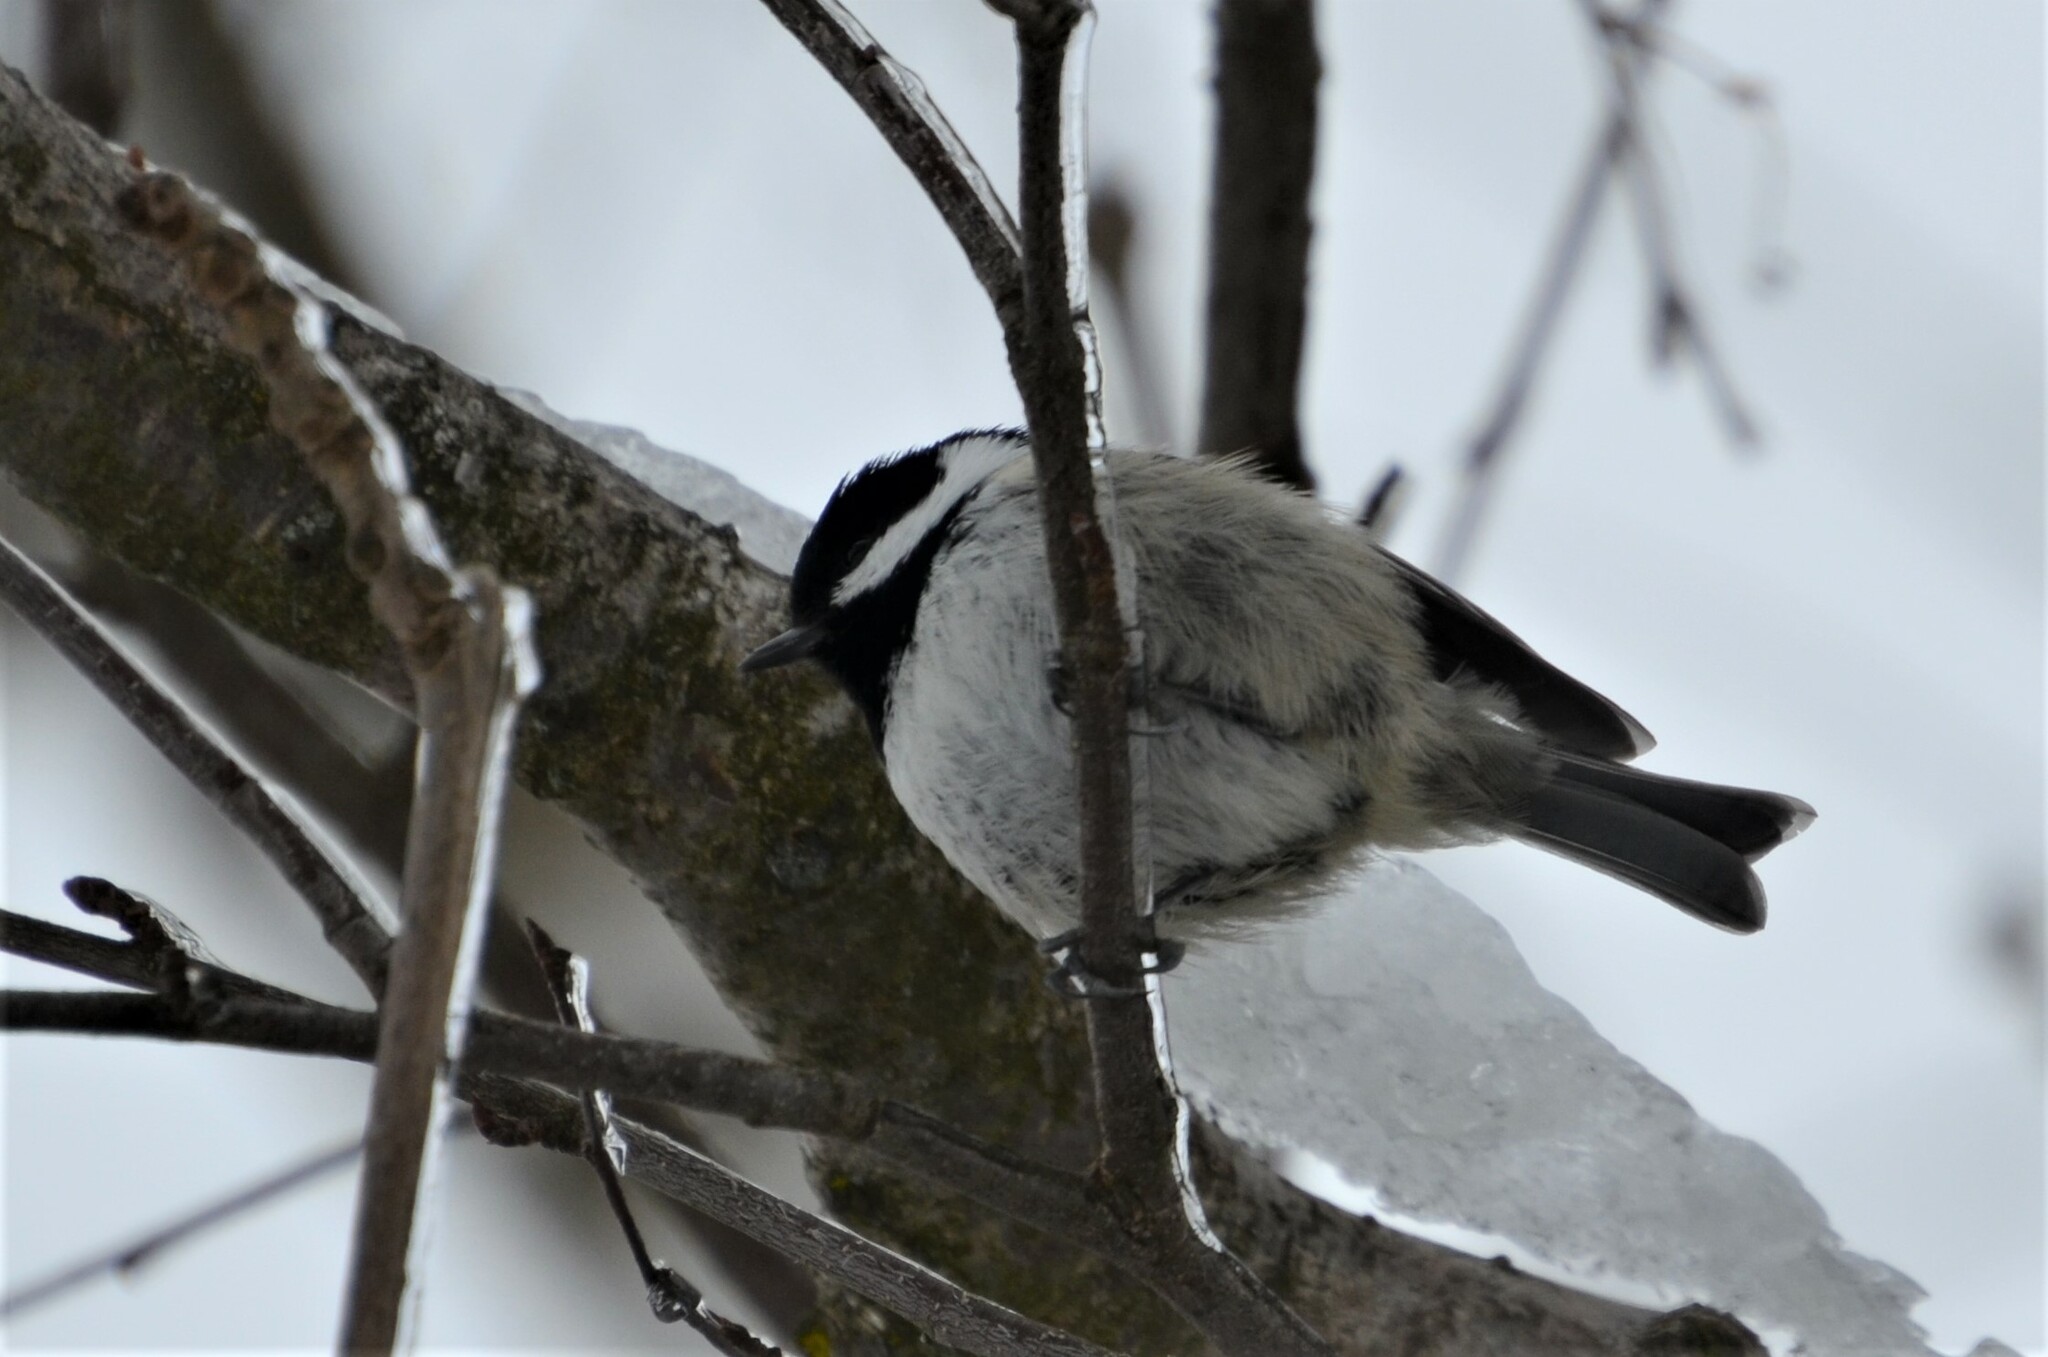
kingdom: Animalia
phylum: Chordata
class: Aves
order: Passeriformes
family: Paridae
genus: Periparus
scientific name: Periparus ater
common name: Coal tit
